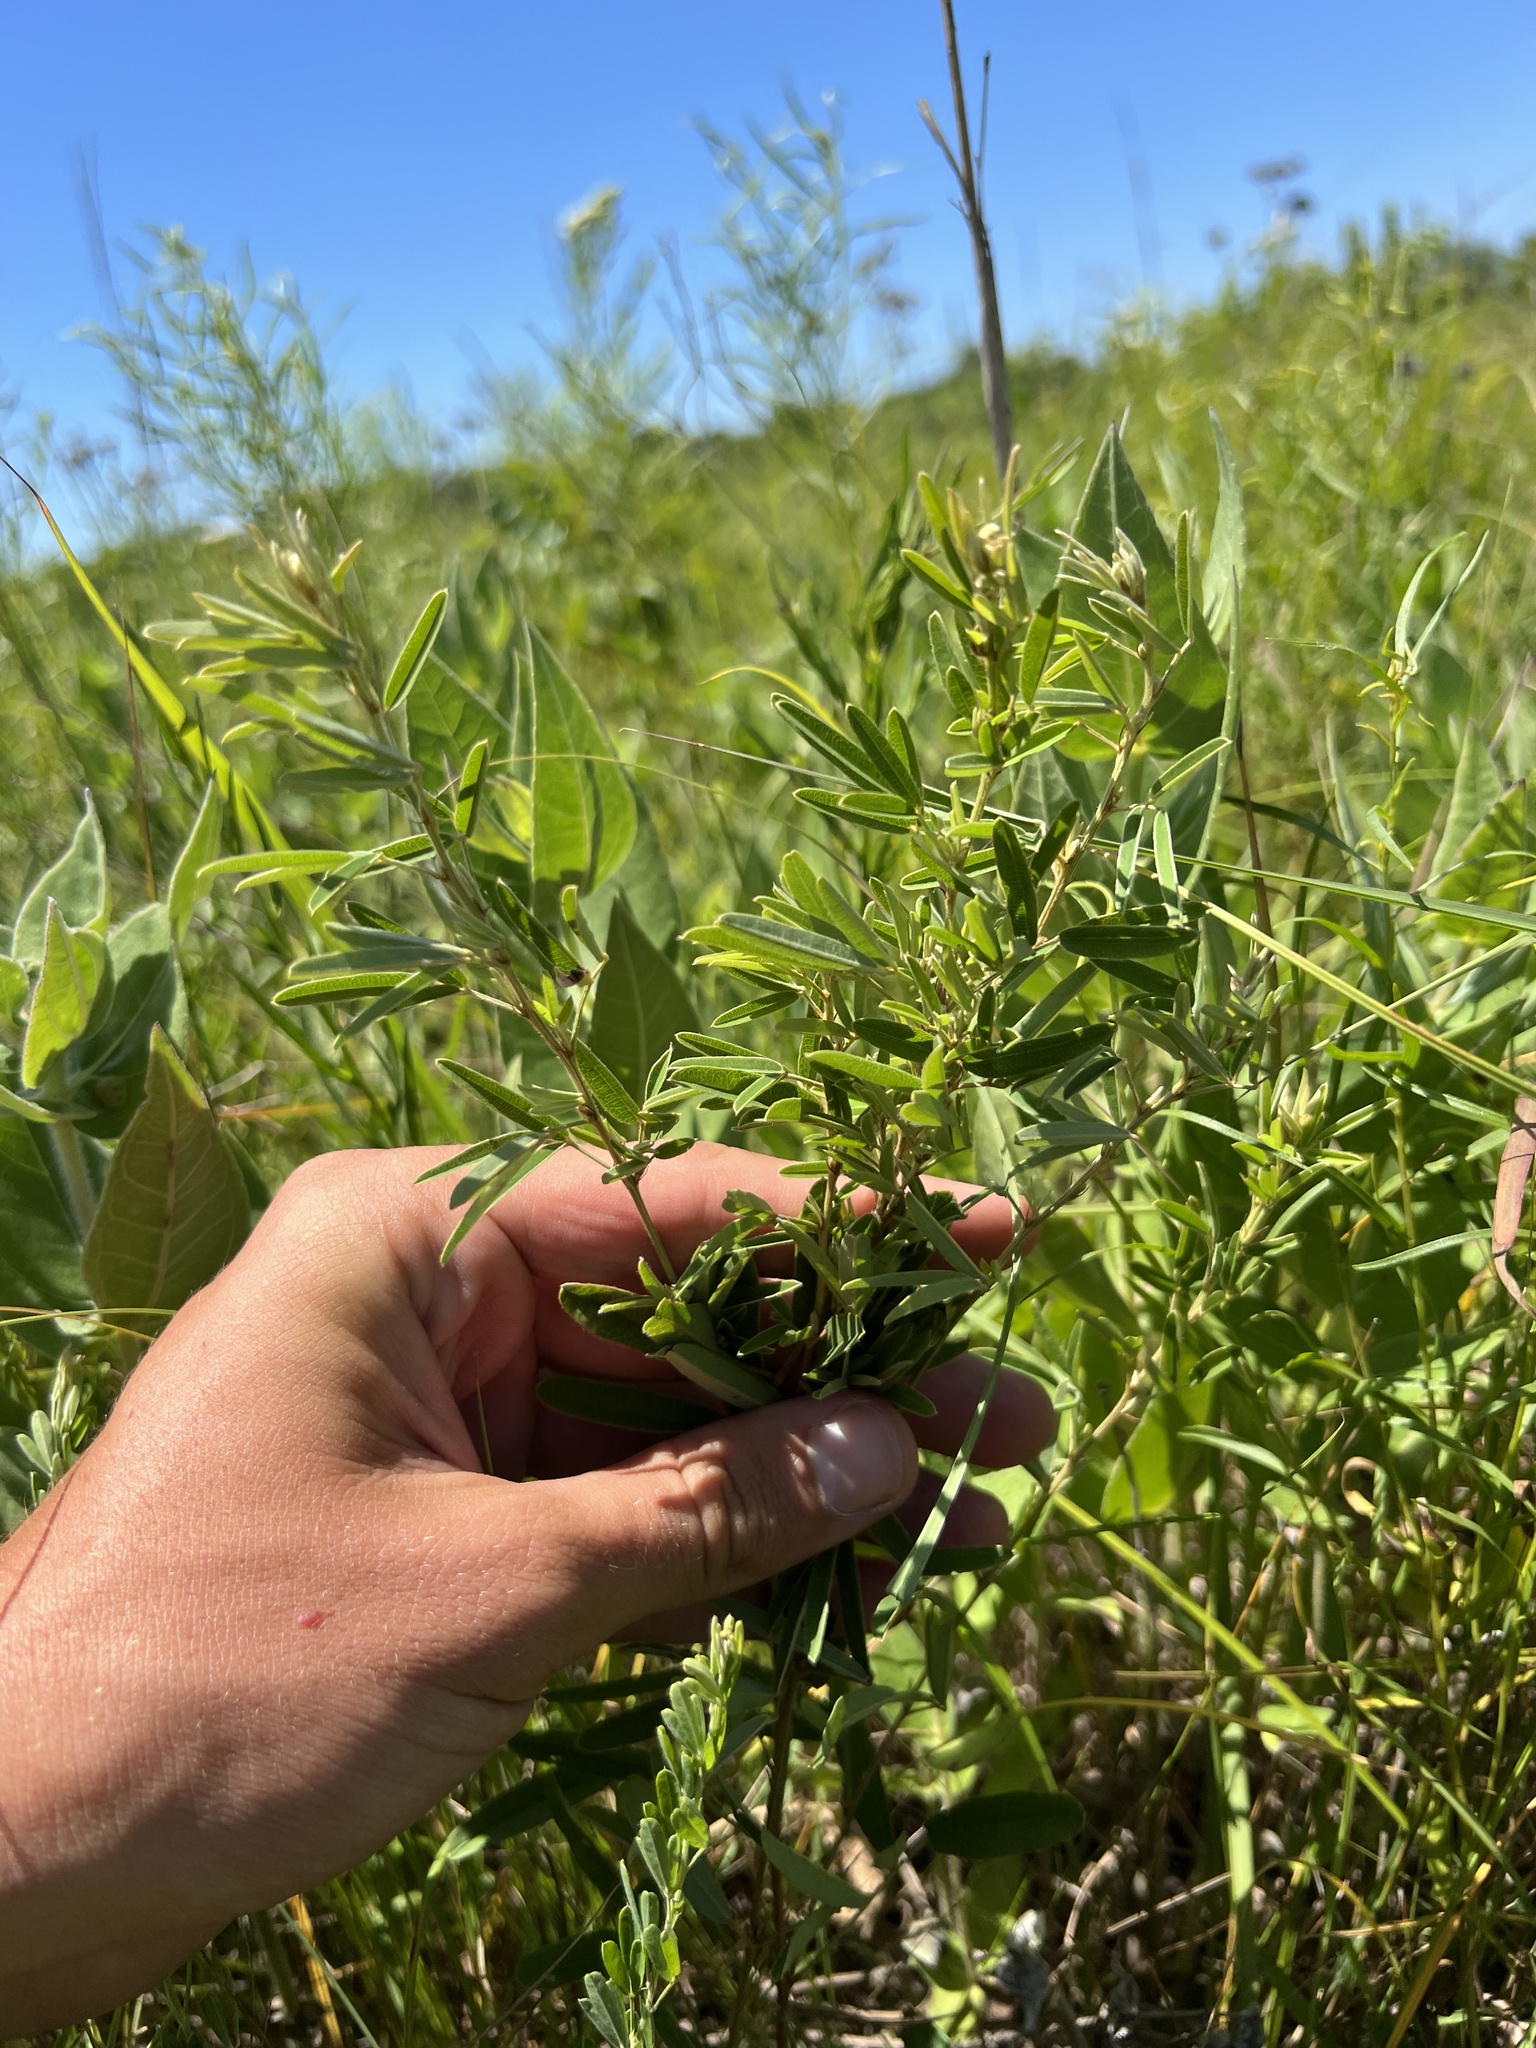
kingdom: Plantae
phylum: Tracheophyta
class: Magnoliopsida
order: Fabales
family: Fabaceae
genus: Lespedeza
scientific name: Lespedeza virginica
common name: Slender bush-clover
